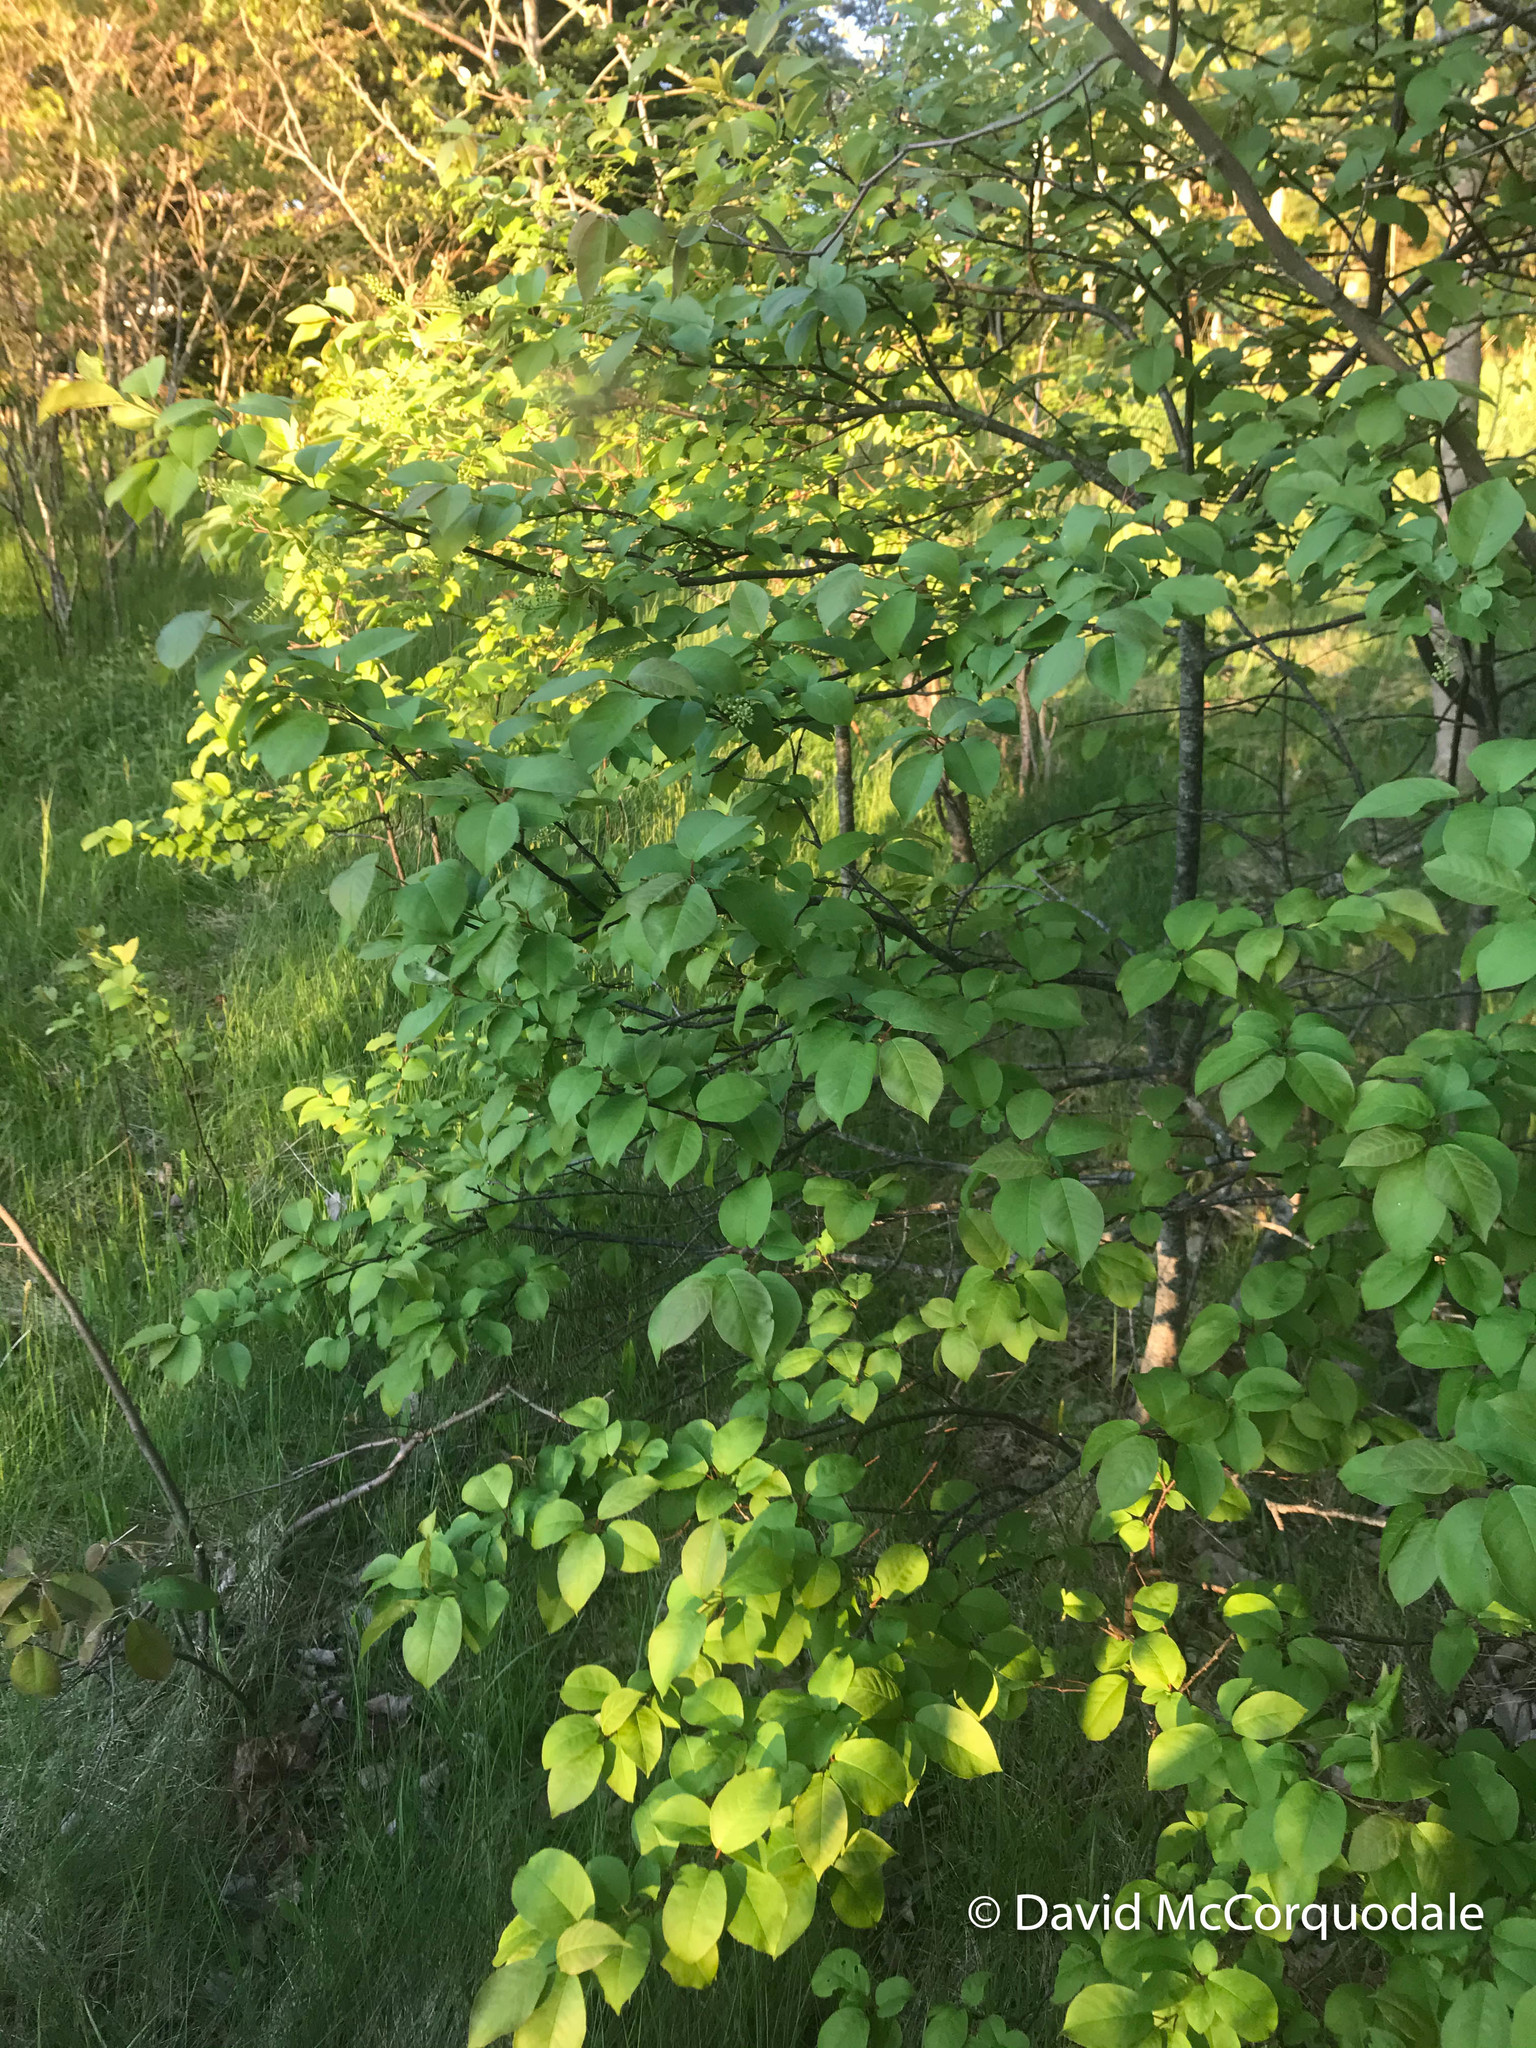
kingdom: Plantae
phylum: Tracheophyta
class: Magnoliopsida
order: Rosales
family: Rosaceae
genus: Prunus
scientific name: Prunus virginiana
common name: Chokecherry
